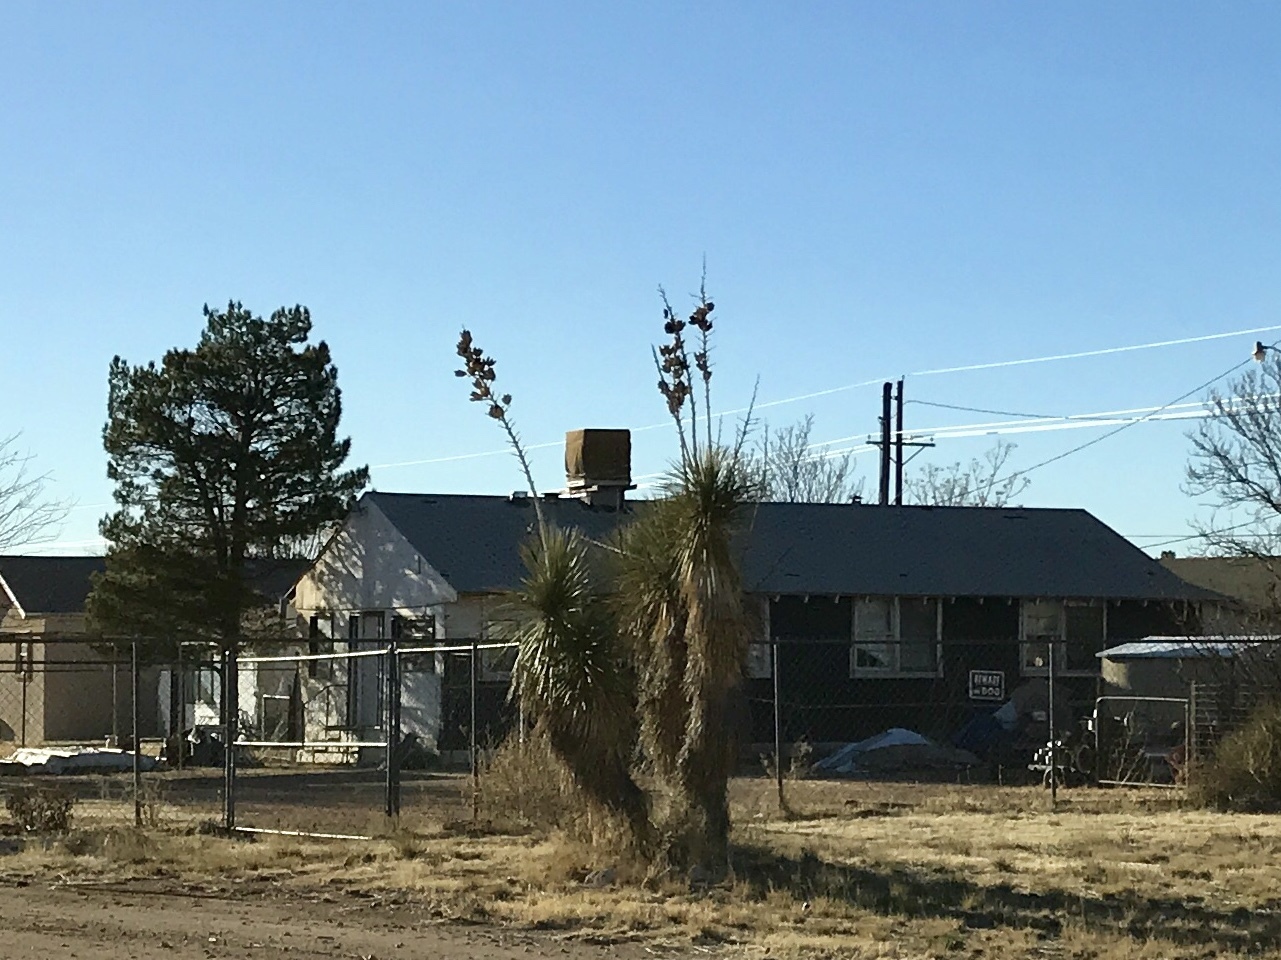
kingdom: Plantae
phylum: Tracheophyta
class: Liliopsida
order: Asparagales
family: Asparagaceae
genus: Yucca
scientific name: Yucca elata
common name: Palmella
